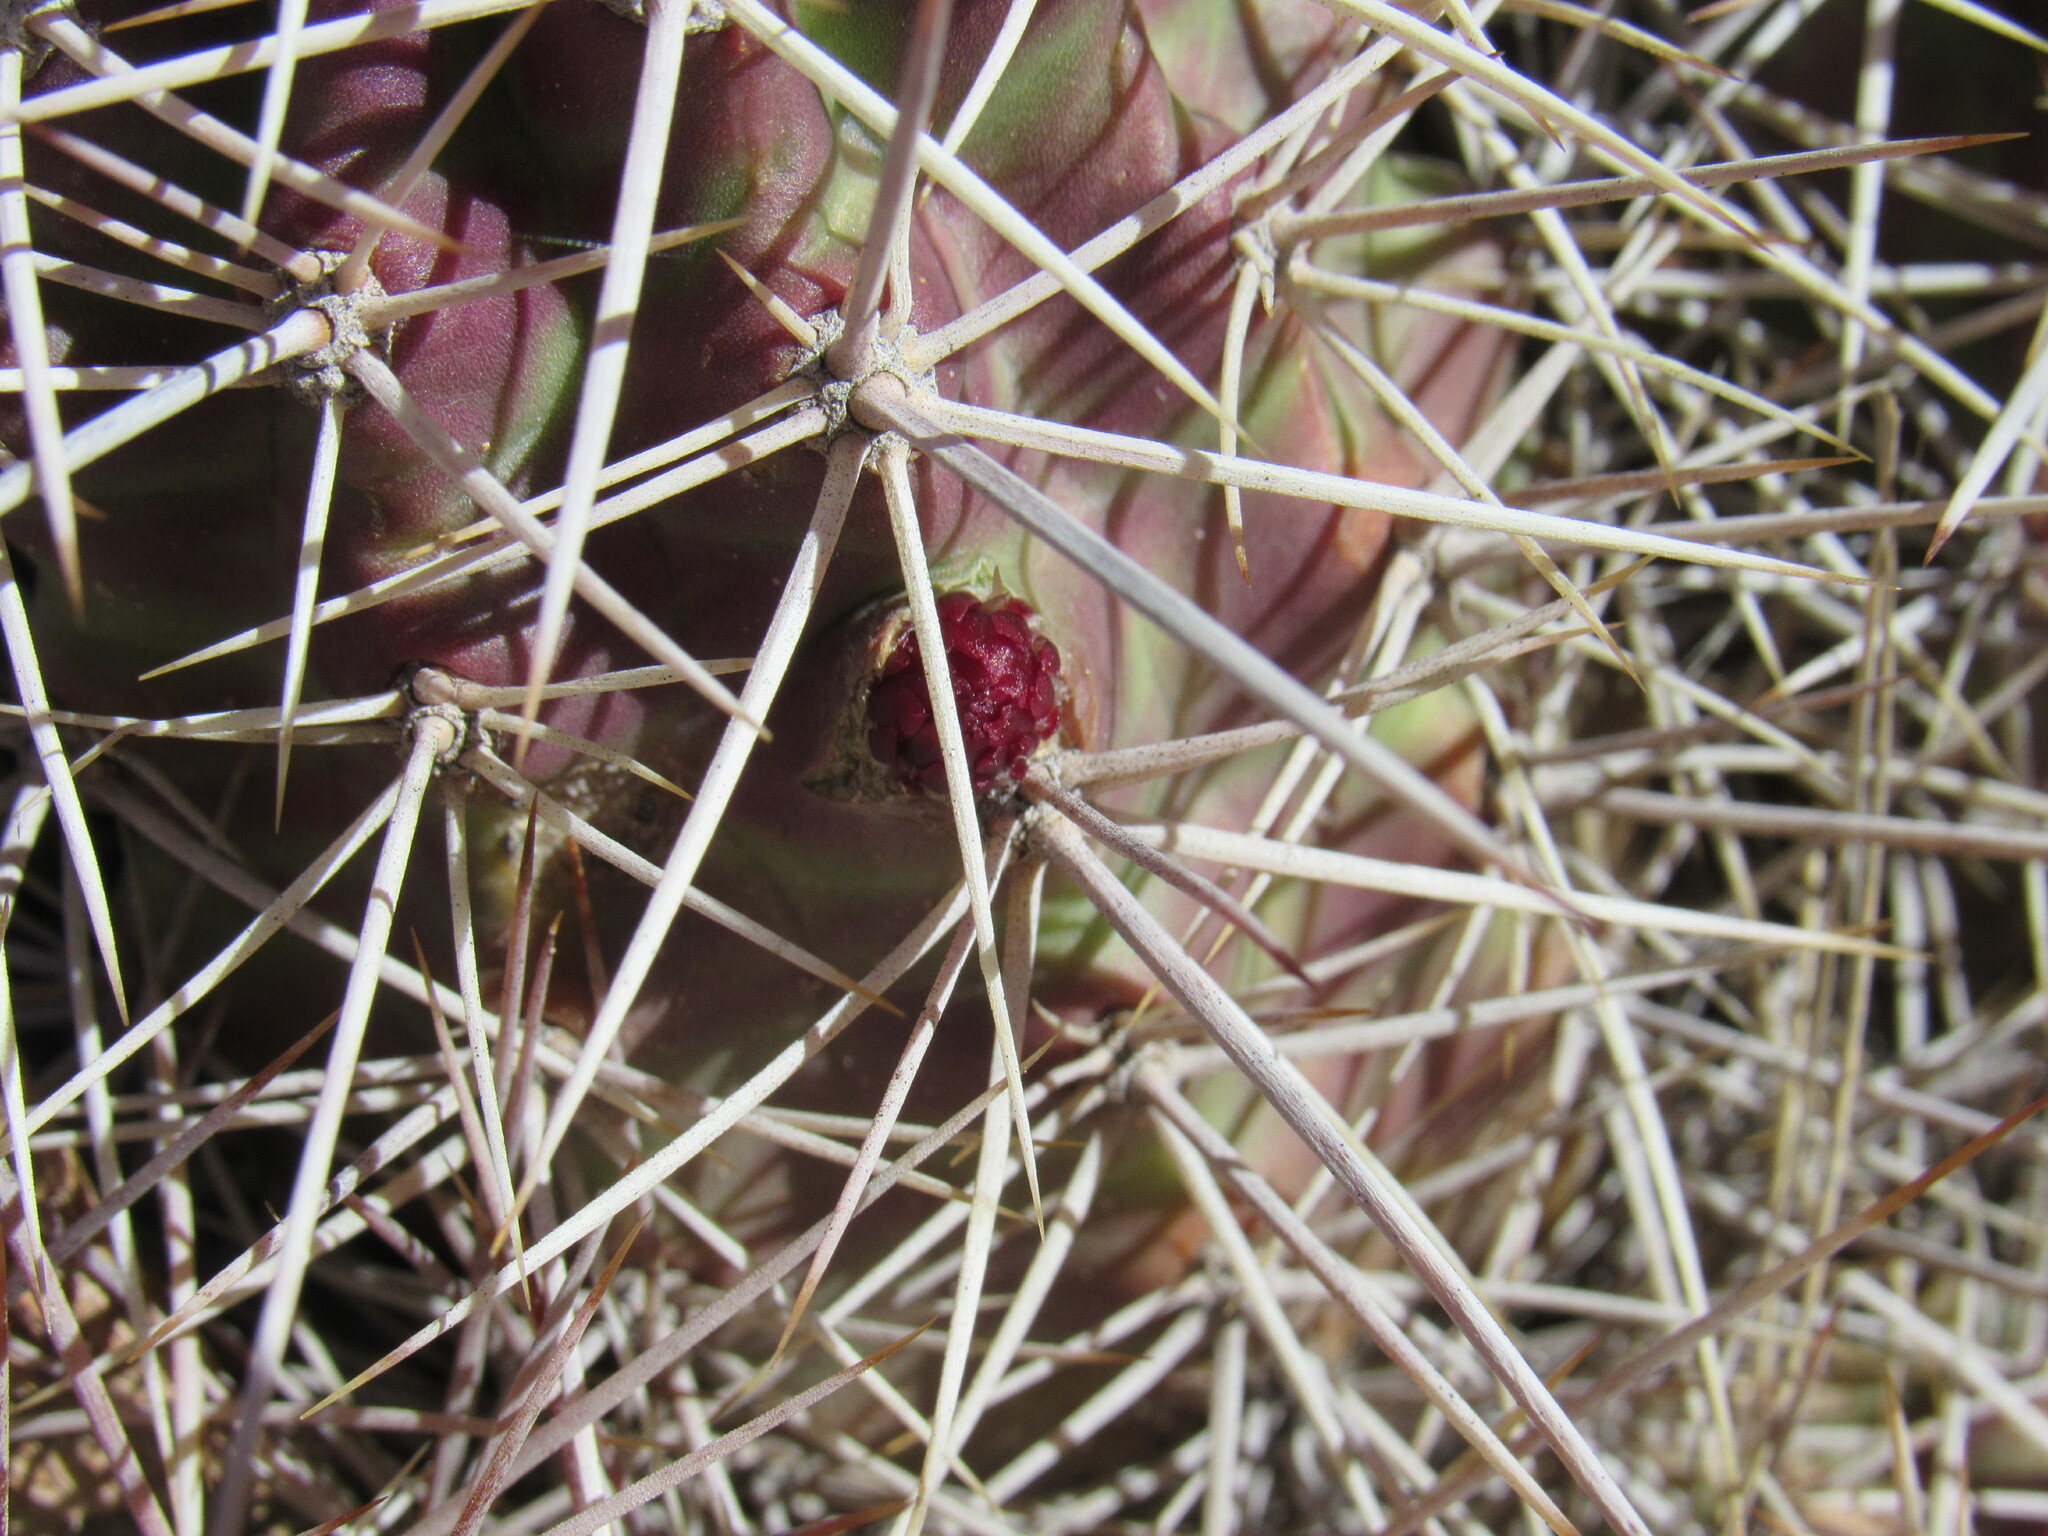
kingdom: Plantae
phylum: Tracheophyta
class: Magnoliopsida
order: Caryophyllales
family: Cactaceae
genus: Echinocereus
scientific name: Echinocereus triglochidiatus
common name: Claretcup hedgehog
